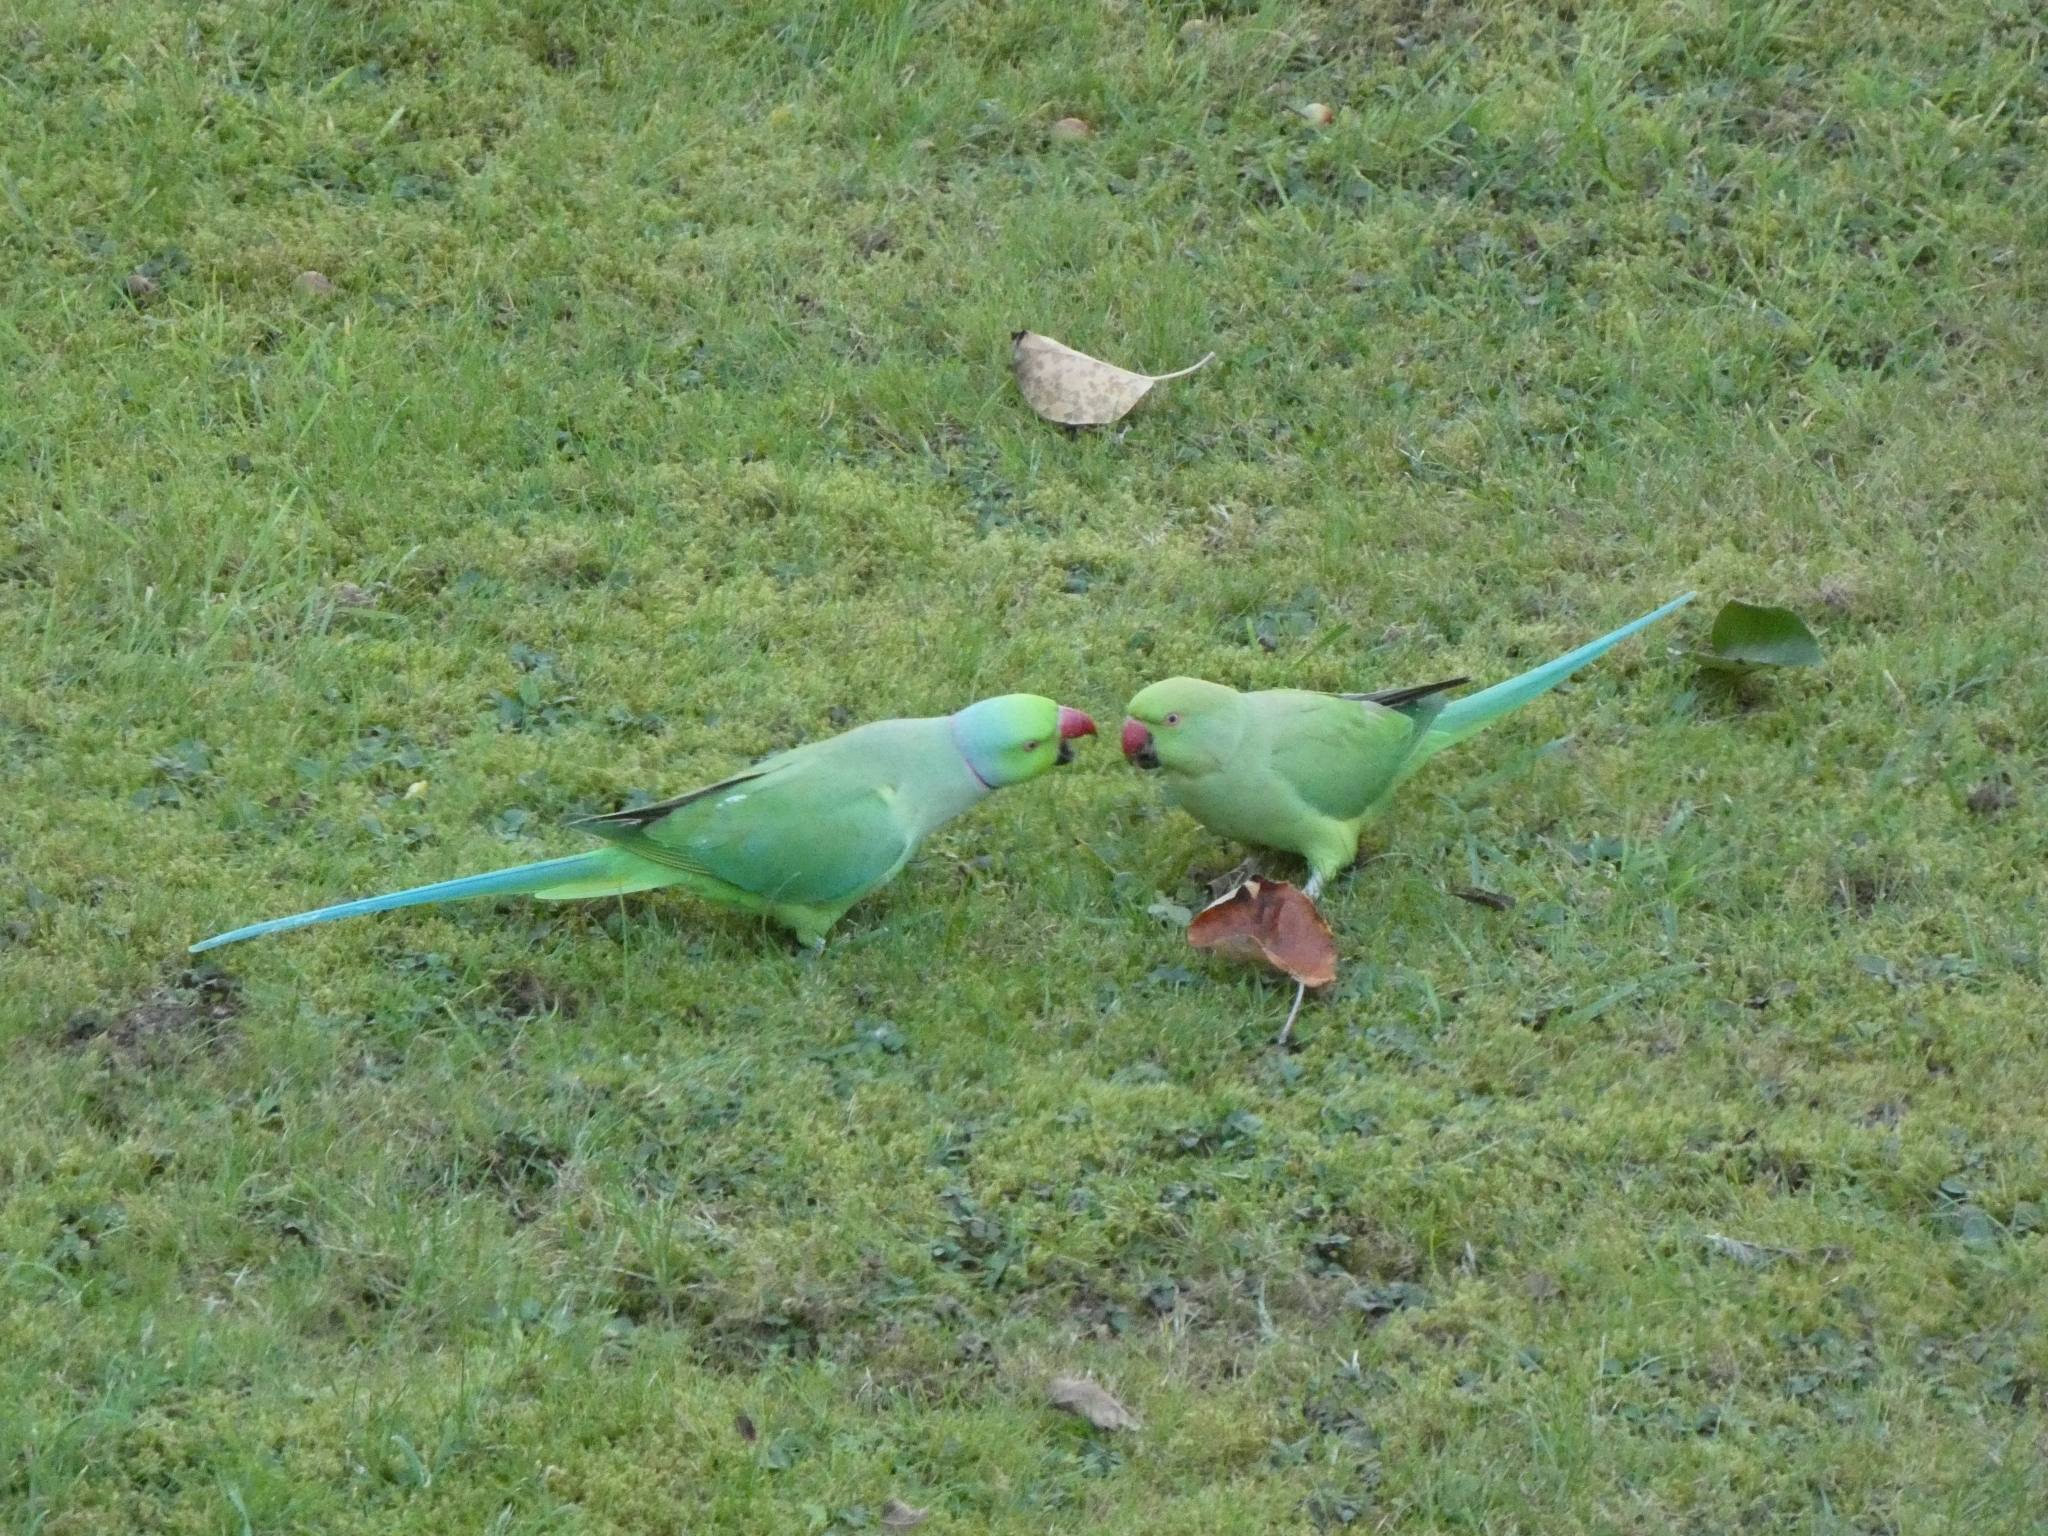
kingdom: Animalia
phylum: Chordata
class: Aves
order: Psittaciformes
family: Psittacidae
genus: Psittacula
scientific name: Psittacula krameri
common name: Rose-ringed parakeet
